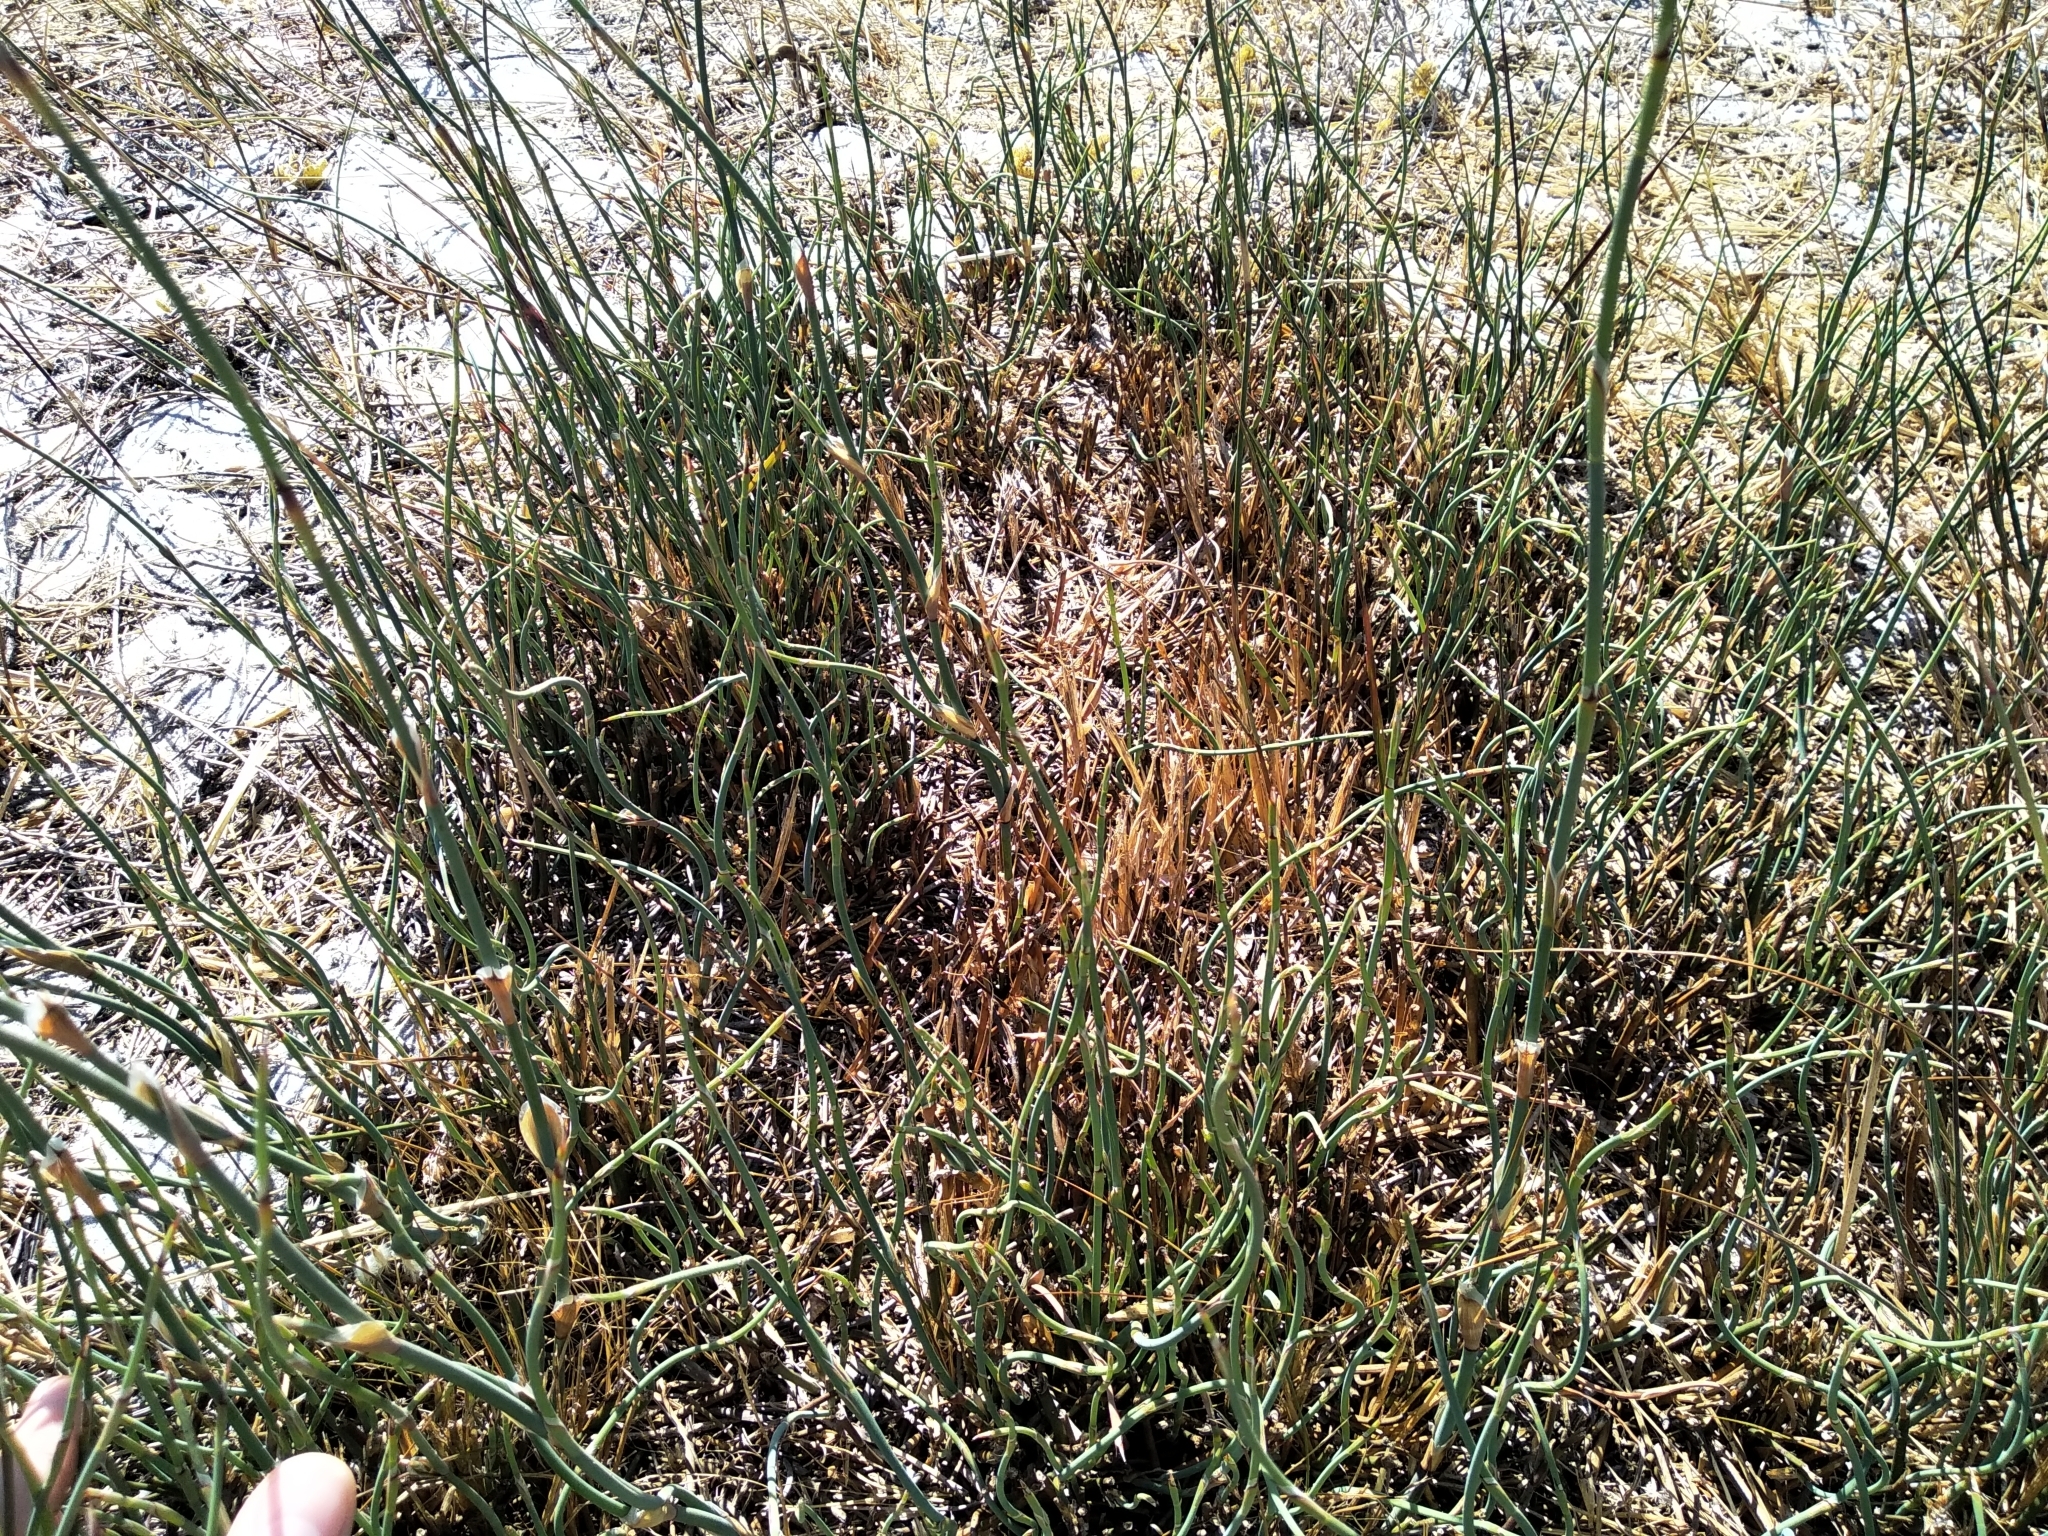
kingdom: Plantae
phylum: Tracheophyta
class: Liliopsida
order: Poales
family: Restionaceae
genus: Willdenowia
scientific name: Willdenowia incurvata
